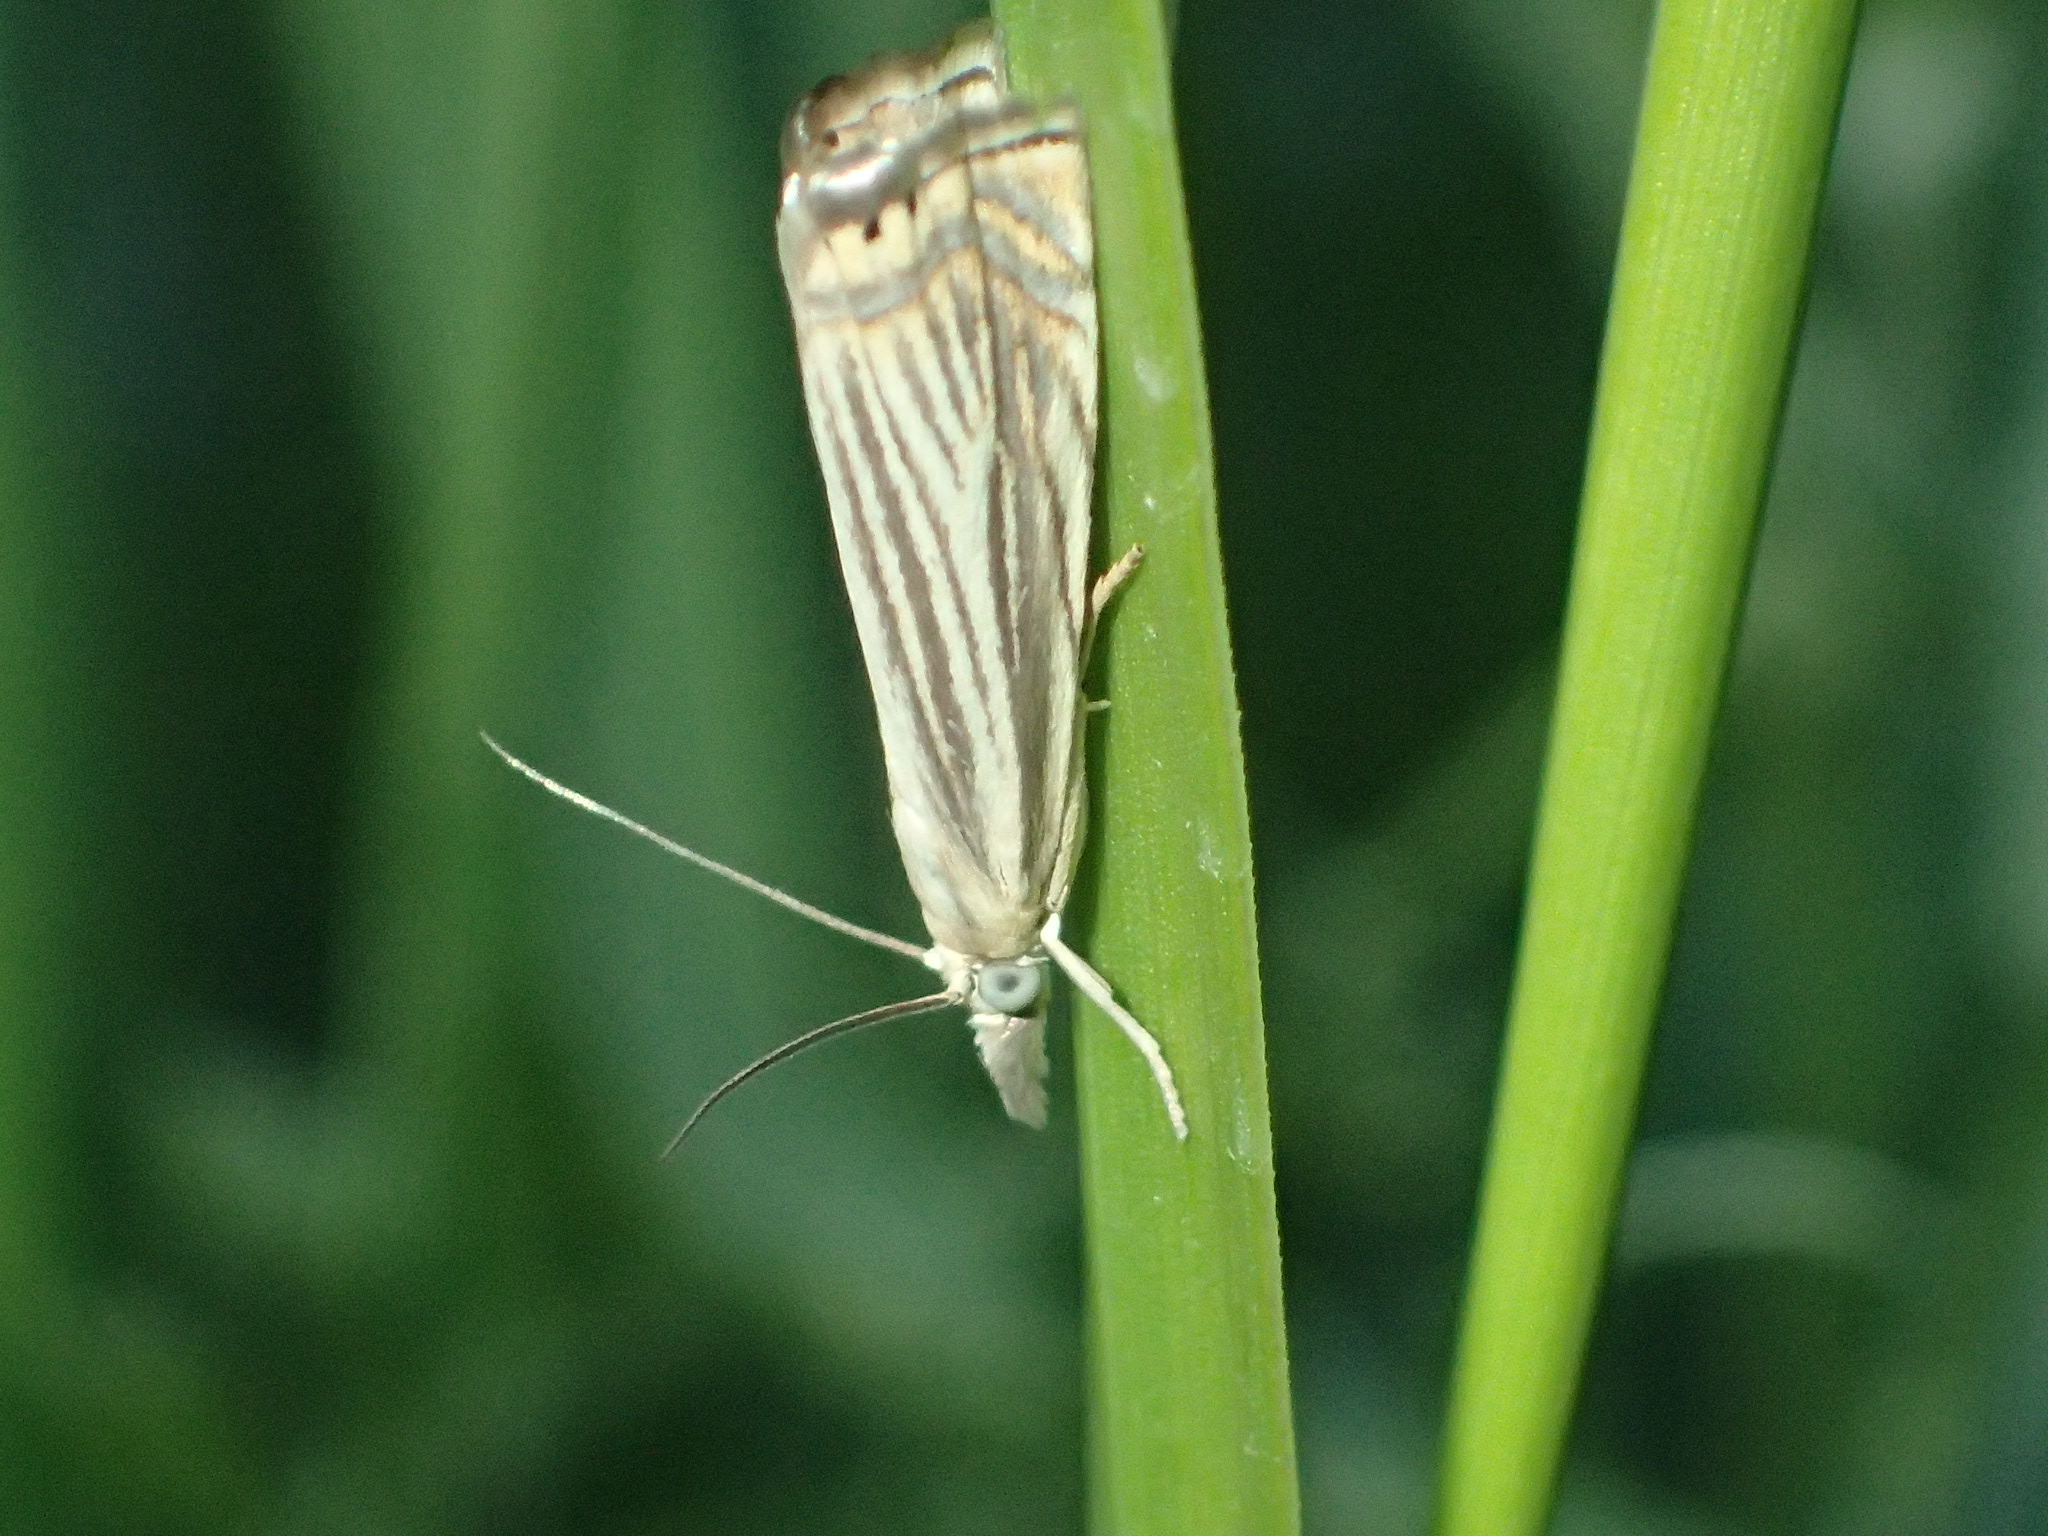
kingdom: Animalia
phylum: Arthropoda
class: Insecta
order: Lepidoptera
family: Crambidae
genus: Chrysoteuchia
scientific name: Chrysoteuchia topiarius
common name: Topiary grass-veneer
